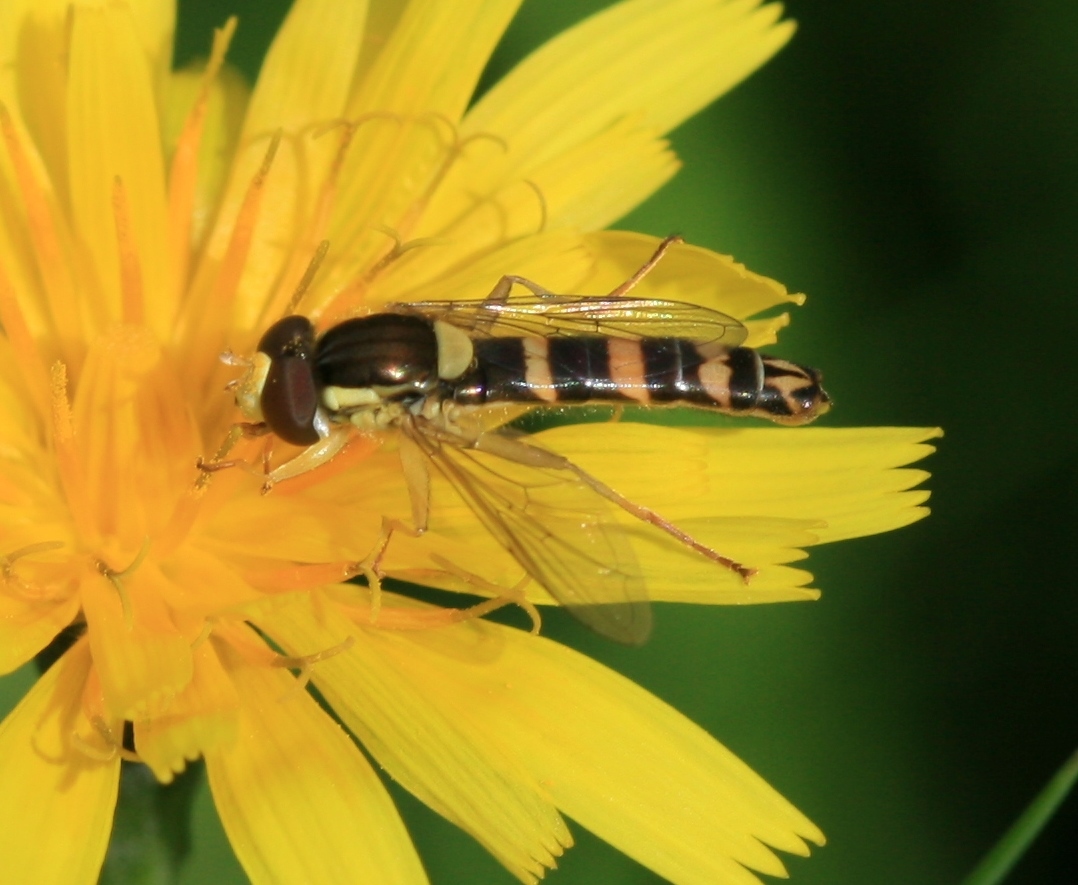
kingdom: Animalia
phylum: Arthropoda
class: Insecta
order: Diptera
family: Syrphidae
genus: Sphaerophoria
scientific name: Sphaerophoria scripta
